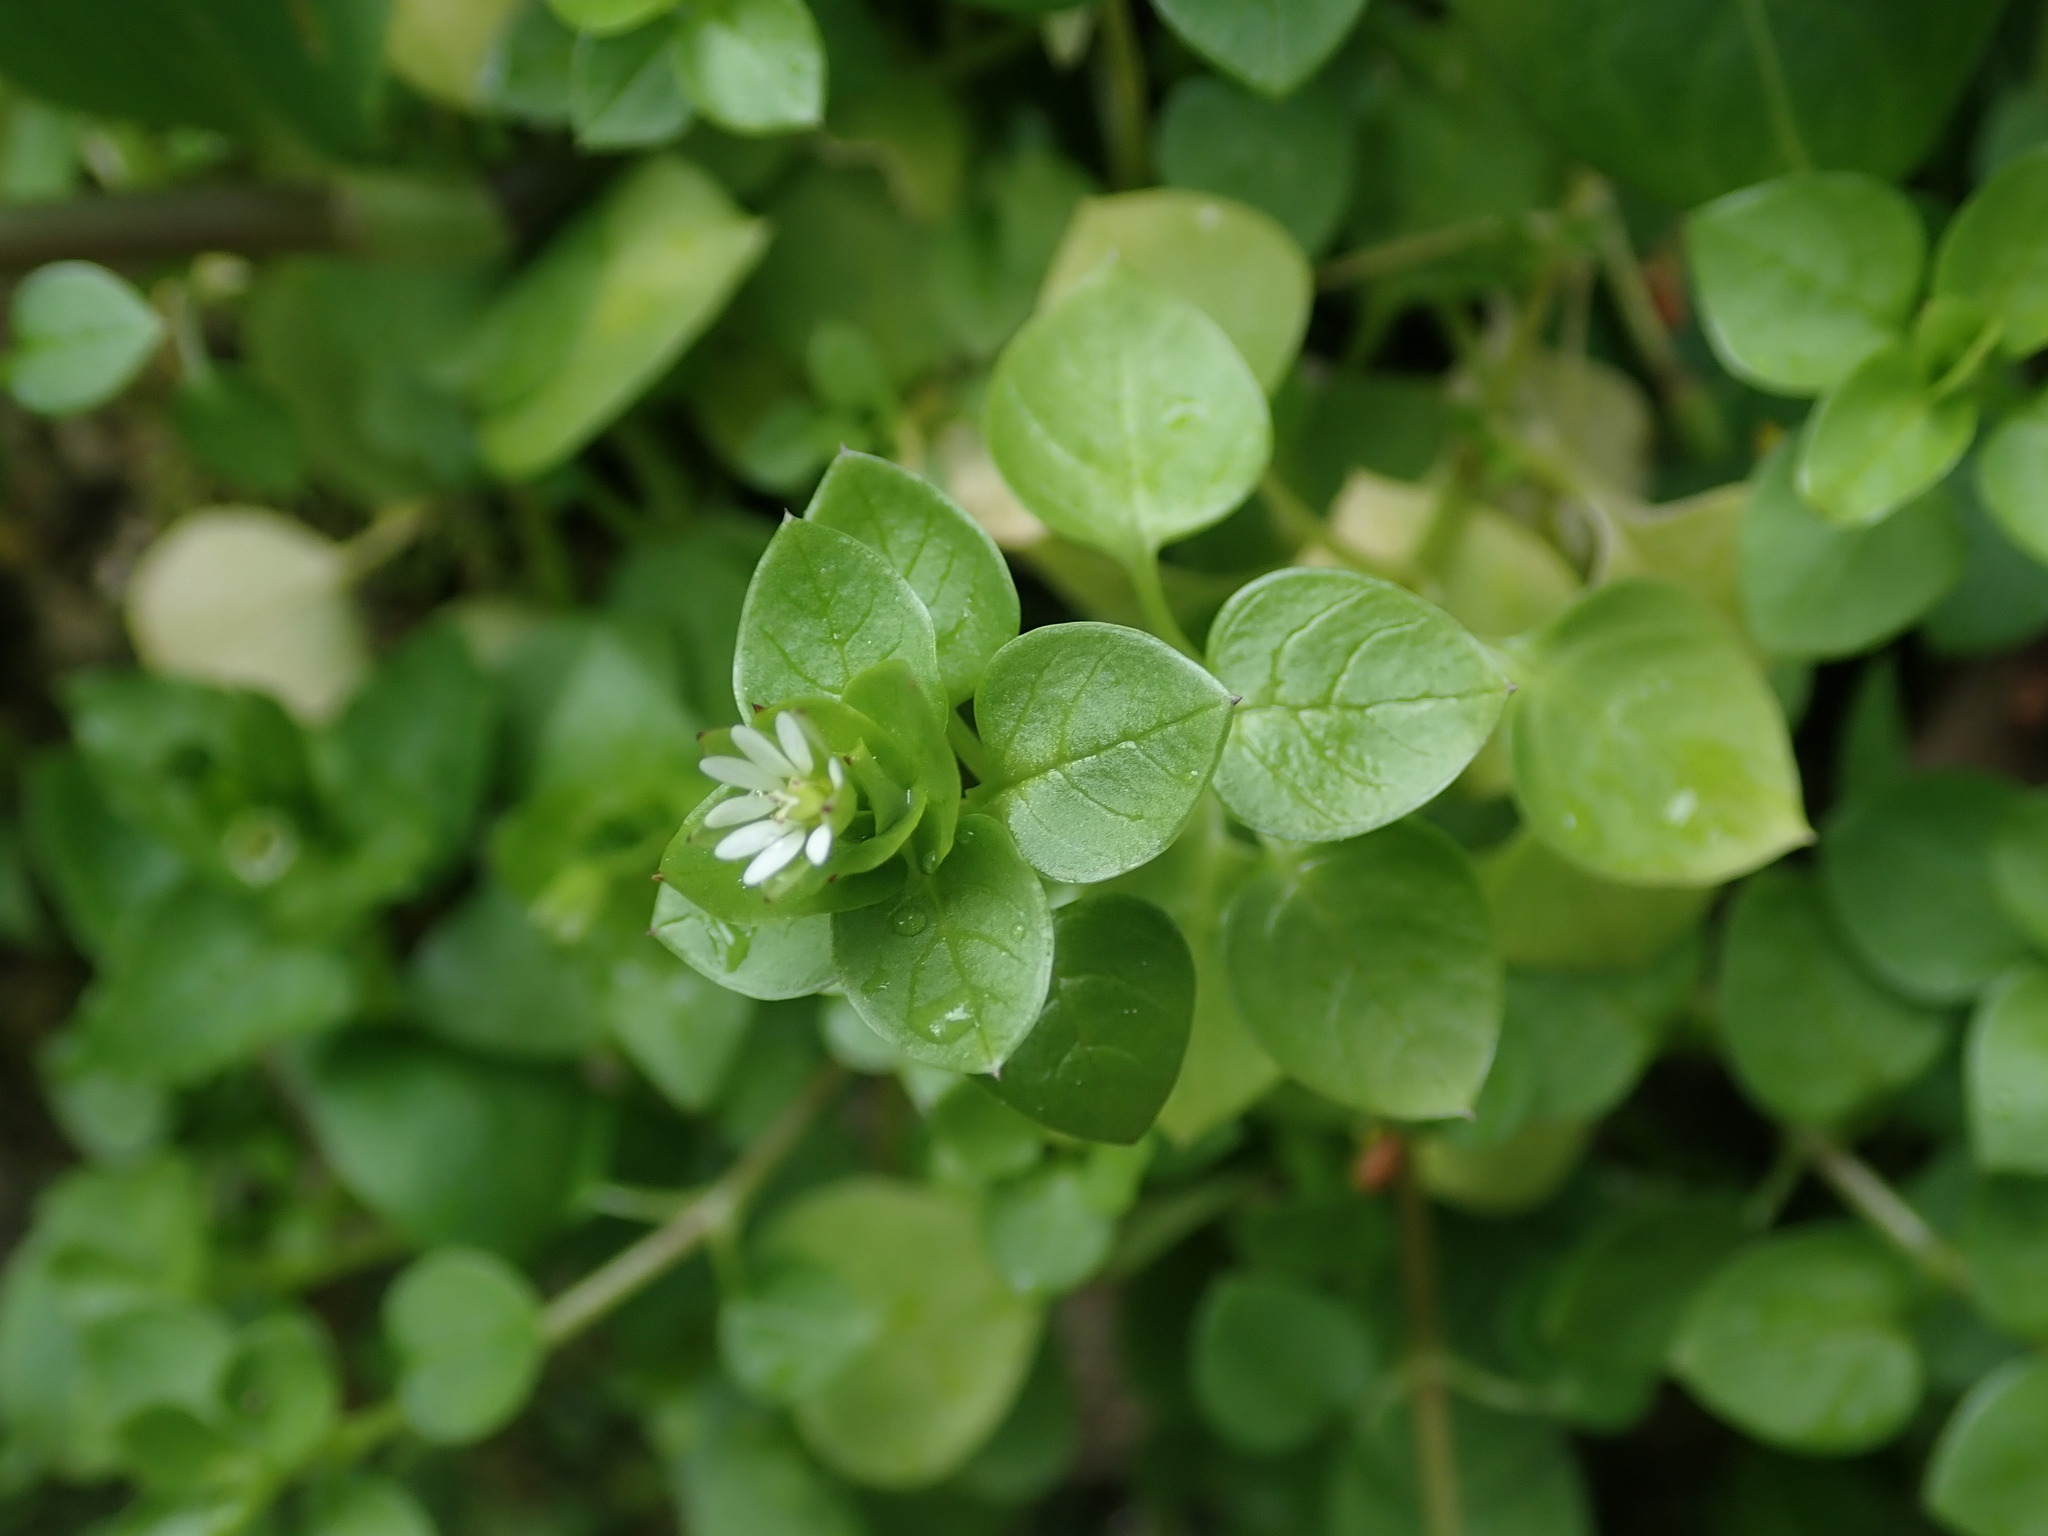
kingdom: Plantae
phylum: Tracheophyta
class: Magnoliopsida
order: Caryophyllales
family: Caryophyllaceae
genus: Stellaria
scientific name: Stellaria media
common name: Common chickweed
